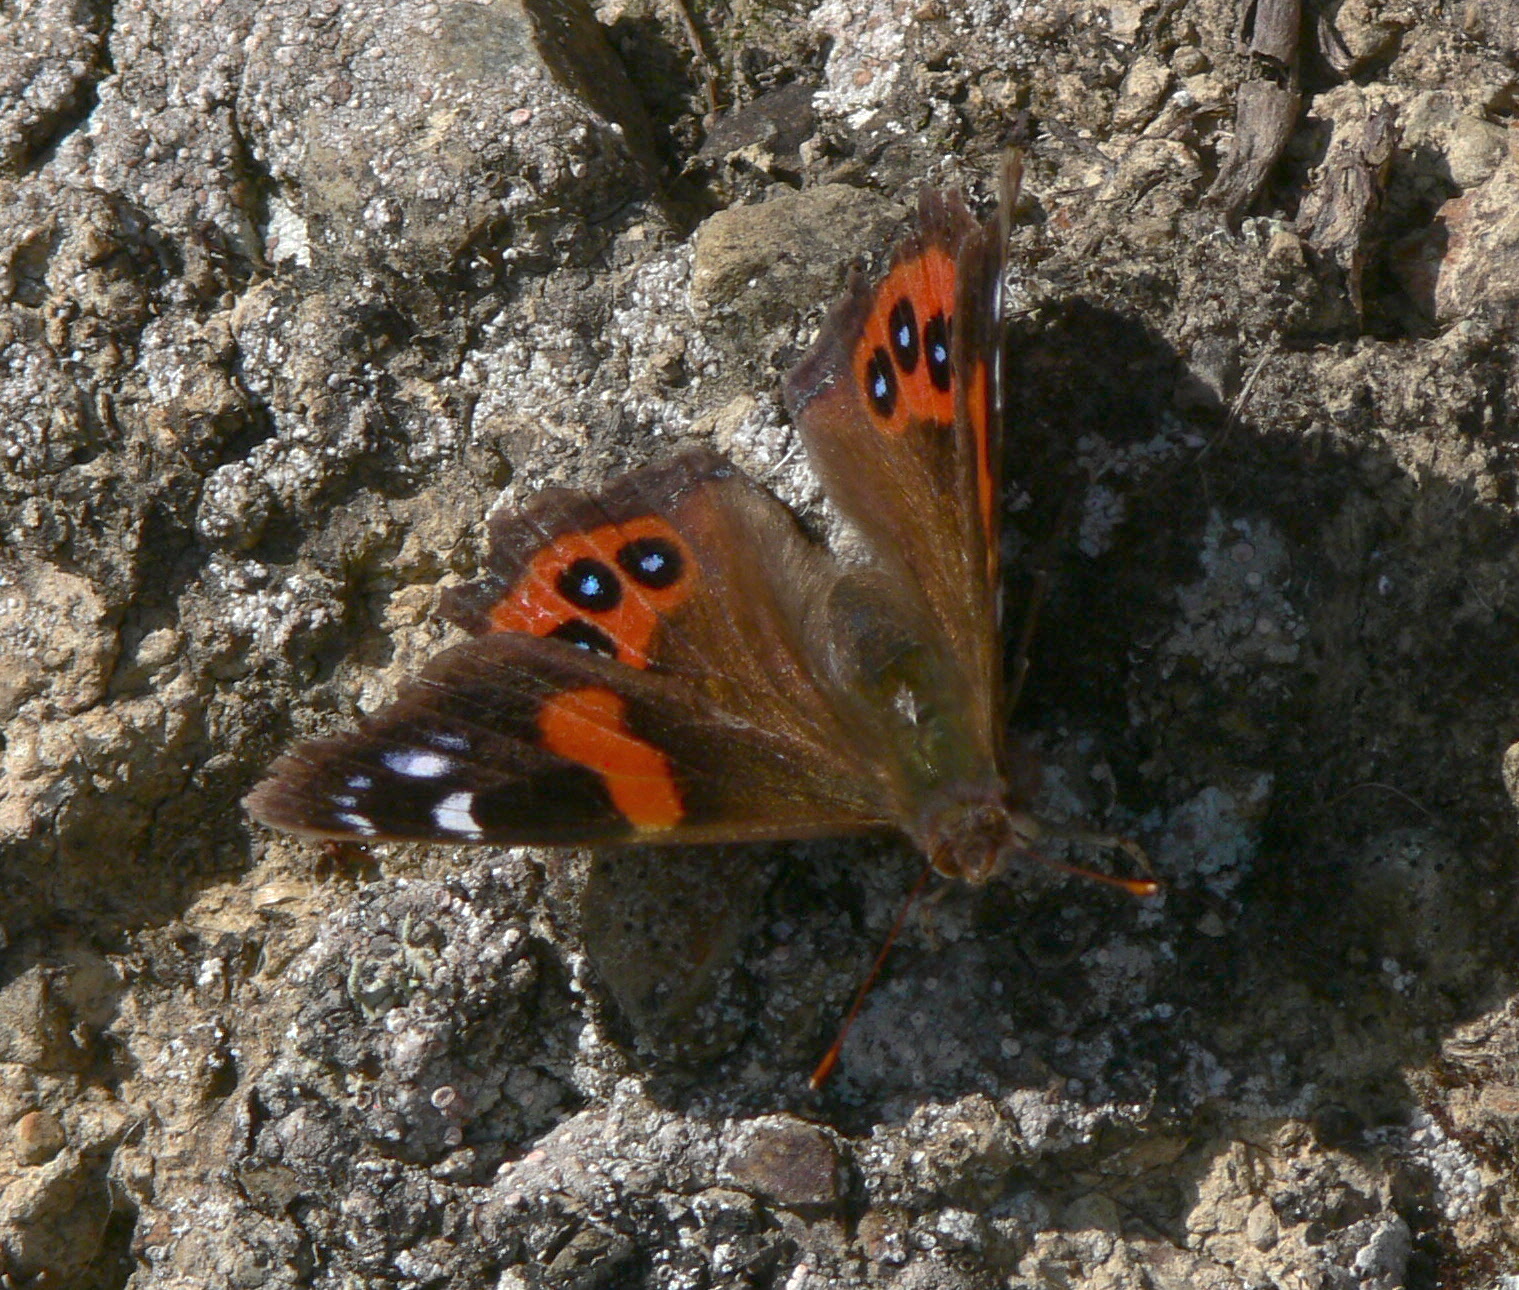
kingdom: Animalia
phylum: Arthropoda
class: Insecta
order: Lepidoptera
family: Nymphalidae
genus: Vanessa
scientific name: Vanessa gonerilla
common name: New zealand red admiral
